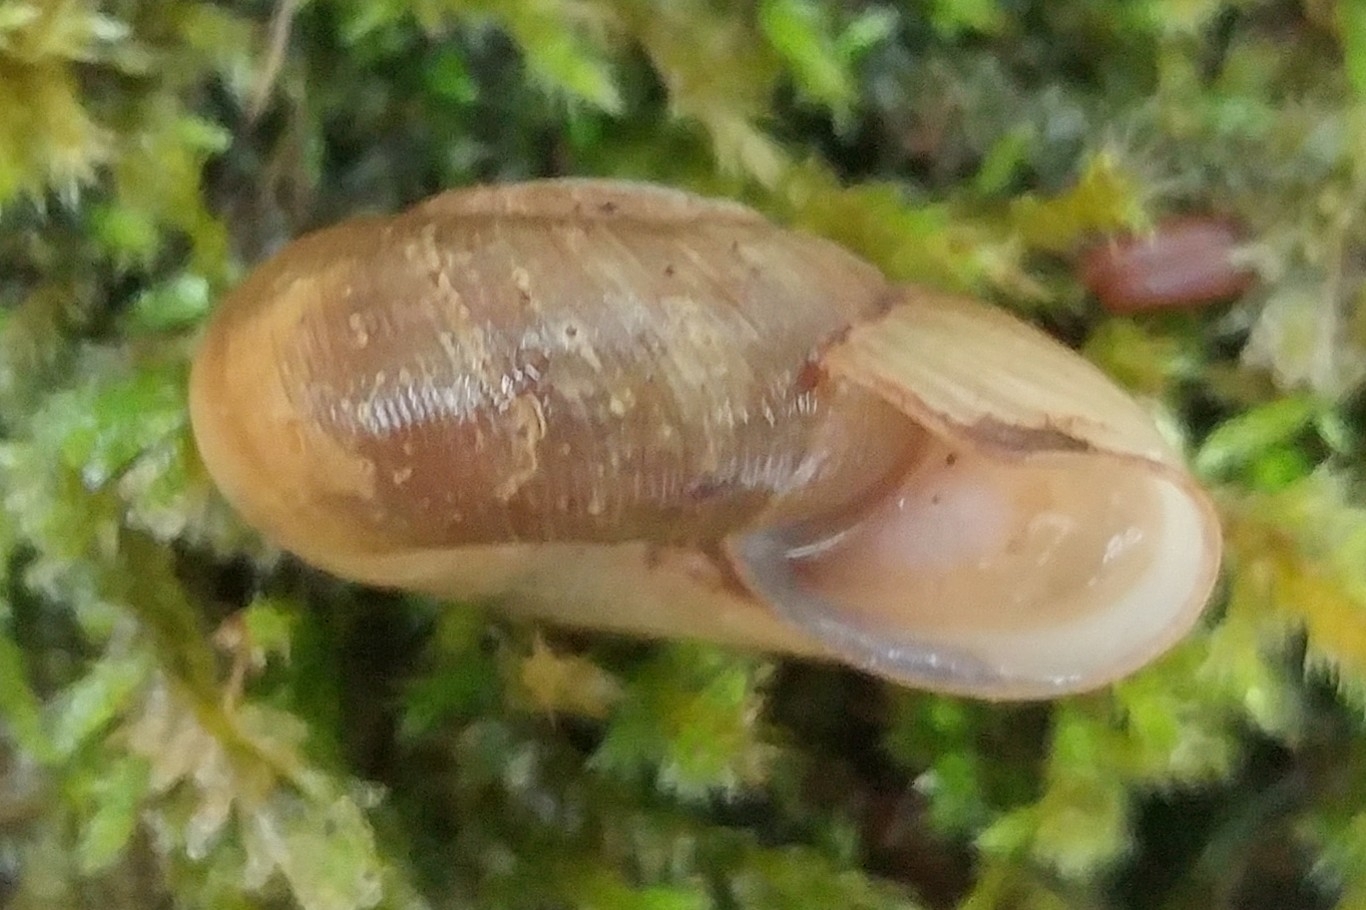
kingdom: Animalia
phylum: Mollusca
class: Gastropoda
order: Stylommatophora
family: Haplotrematidae
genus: Ancotrema
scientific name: Ancotrema sportella
